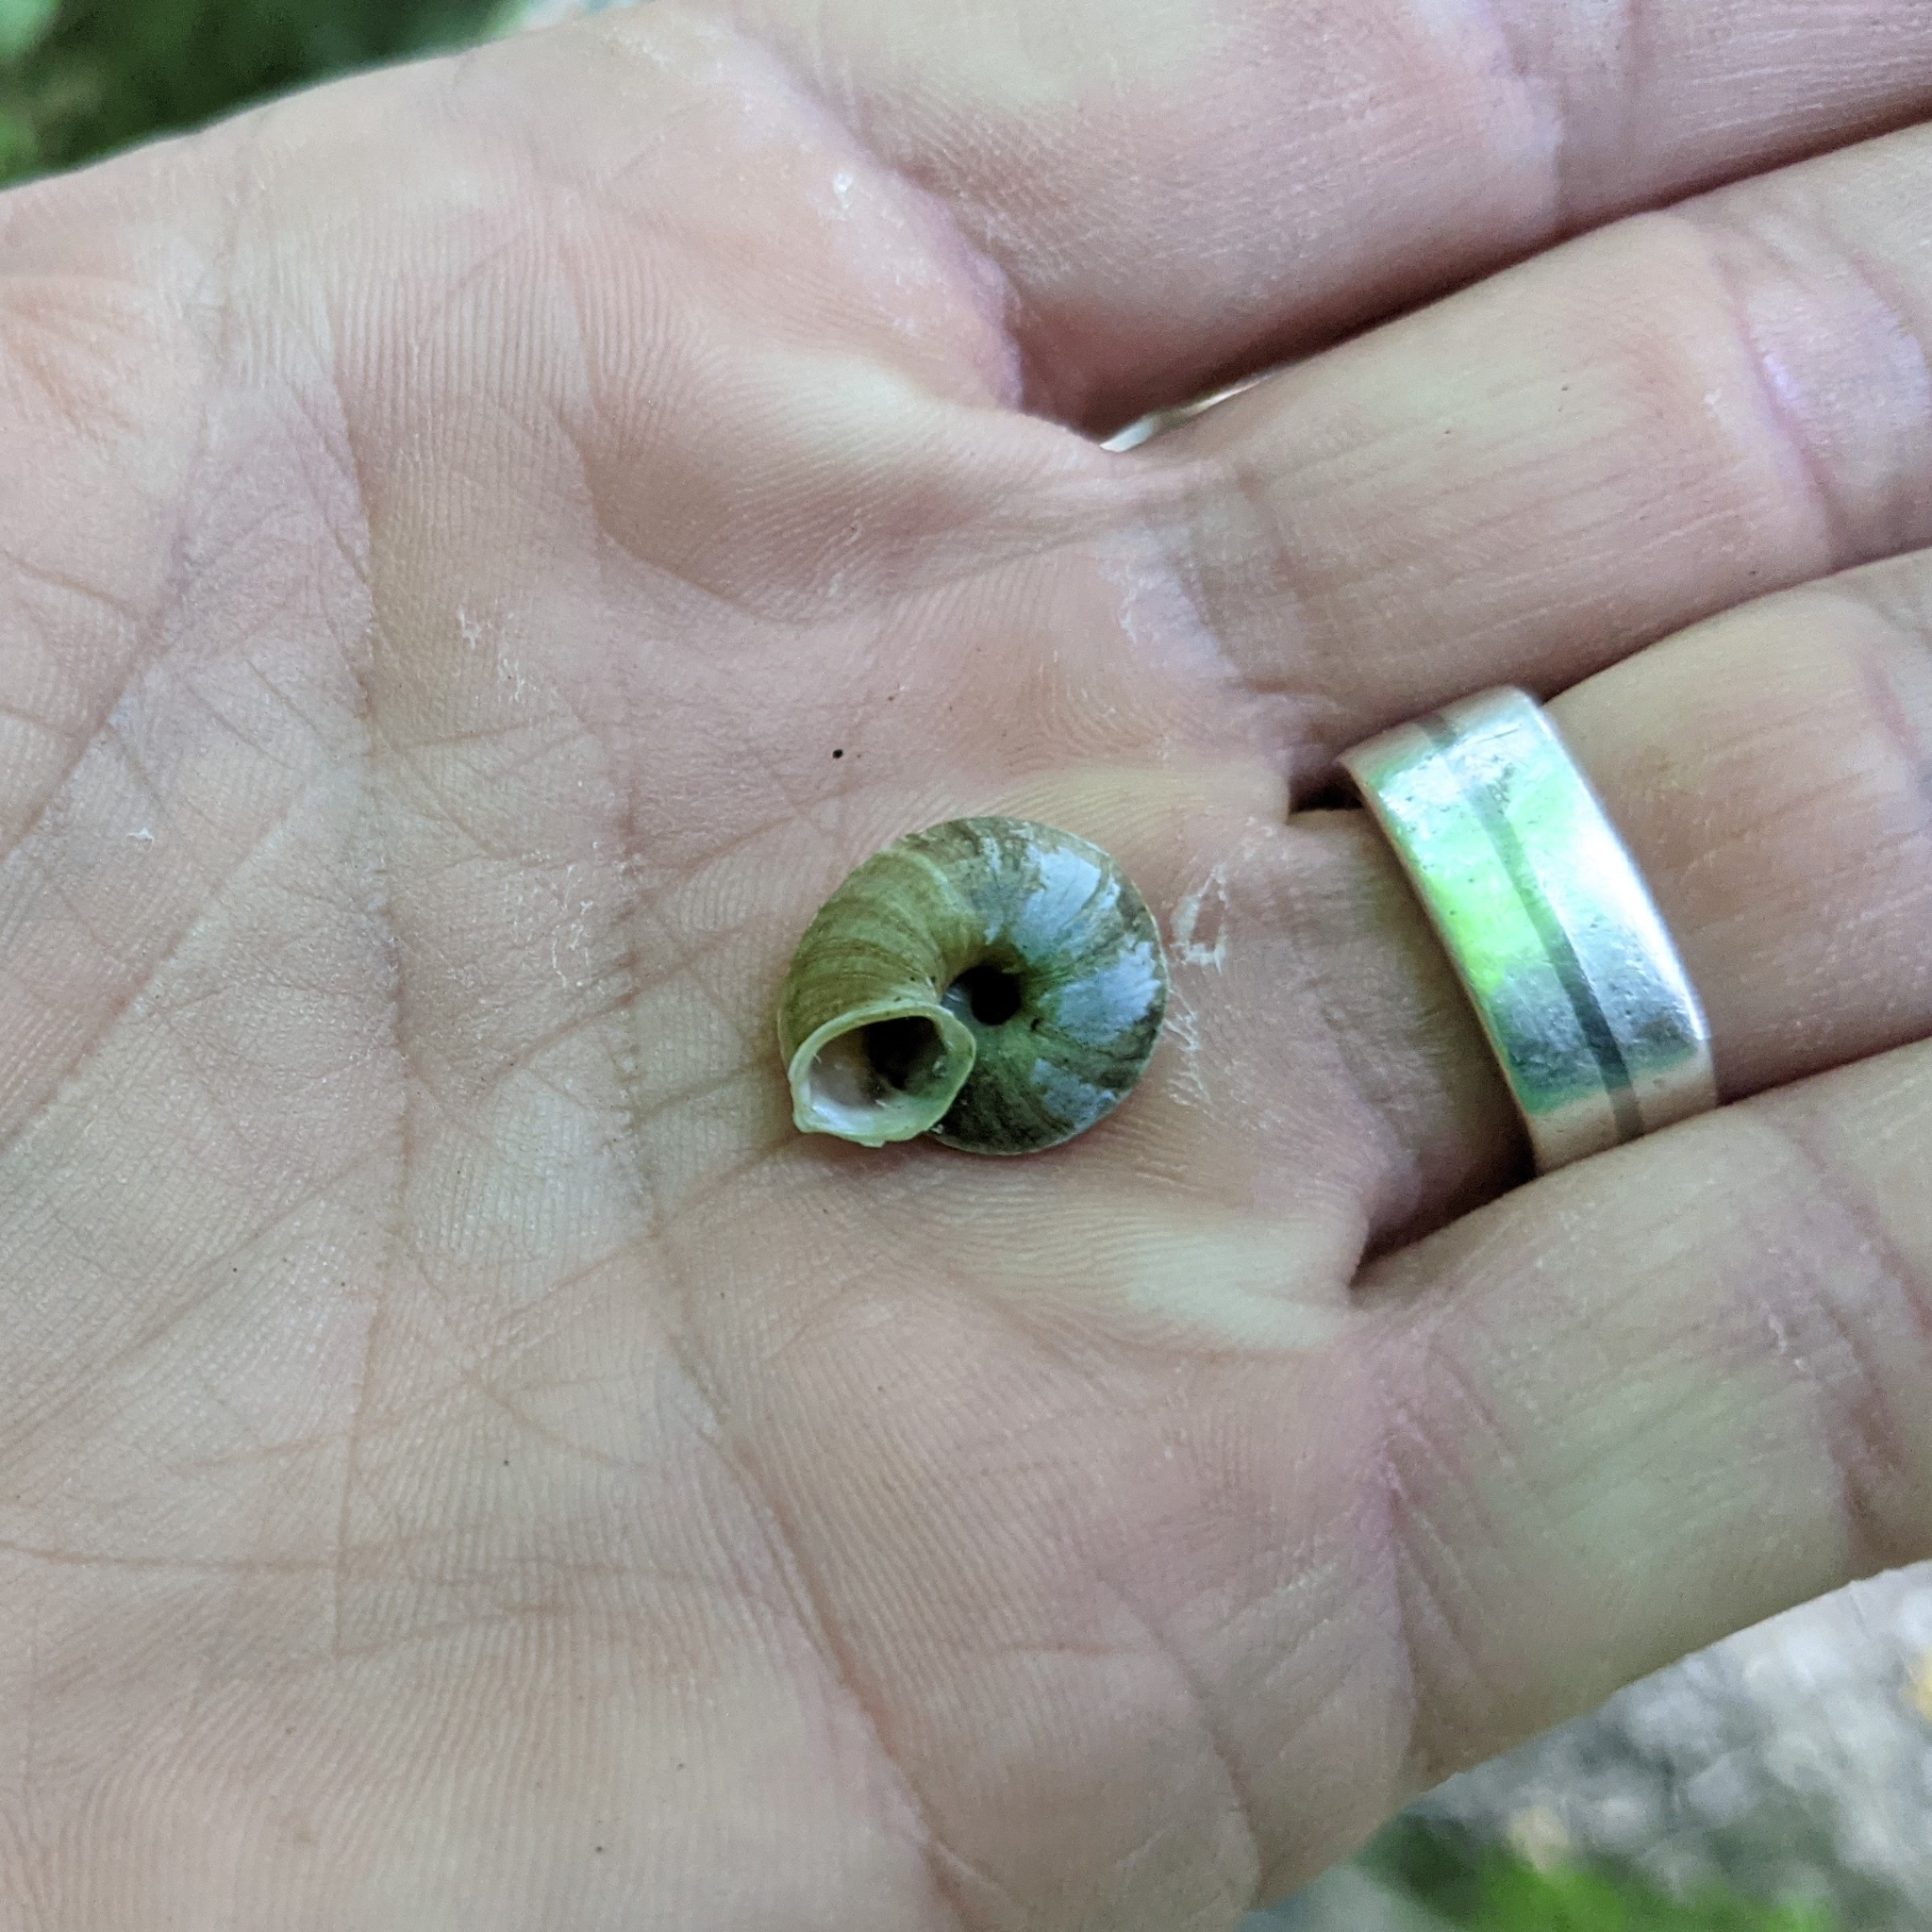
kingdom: Animalia
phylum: Mollusca
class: Gastropoda
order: Stylommatophora
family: Helicidae
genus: Helicigona
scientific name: Helicigona lapicida
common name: Lapidary snail
